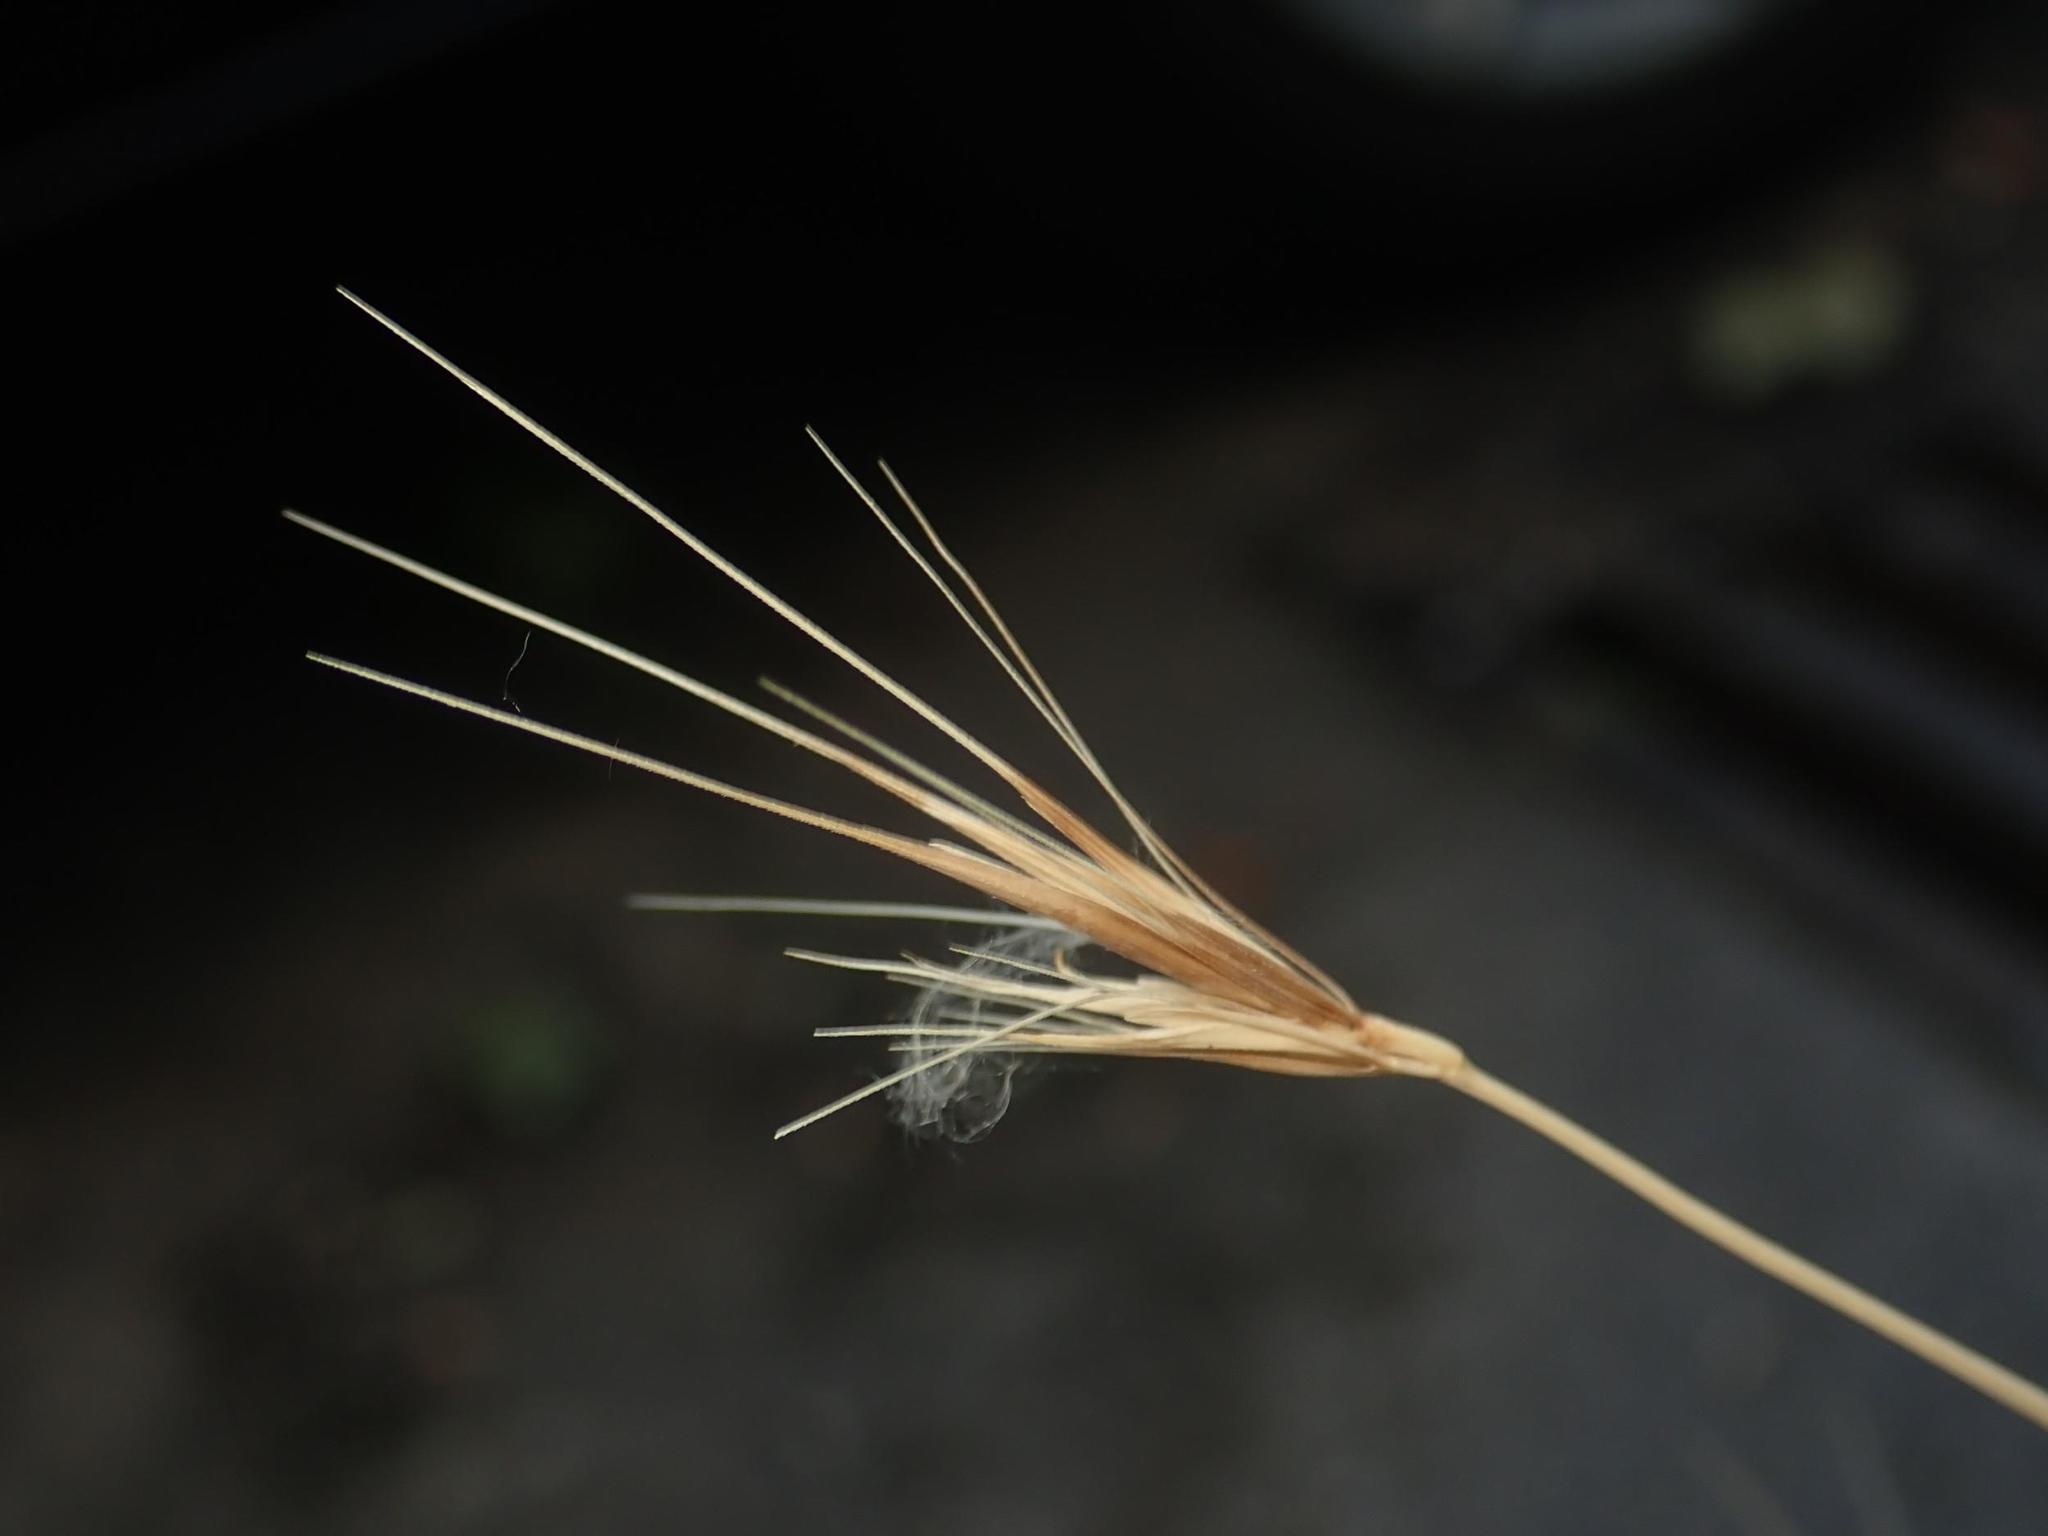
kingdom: Plantae
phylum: Tracheophyta
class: Liliopsida
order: Poales
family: Poaceae
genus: Hordeum
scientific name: Hordeum murinum
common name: Wall barley
